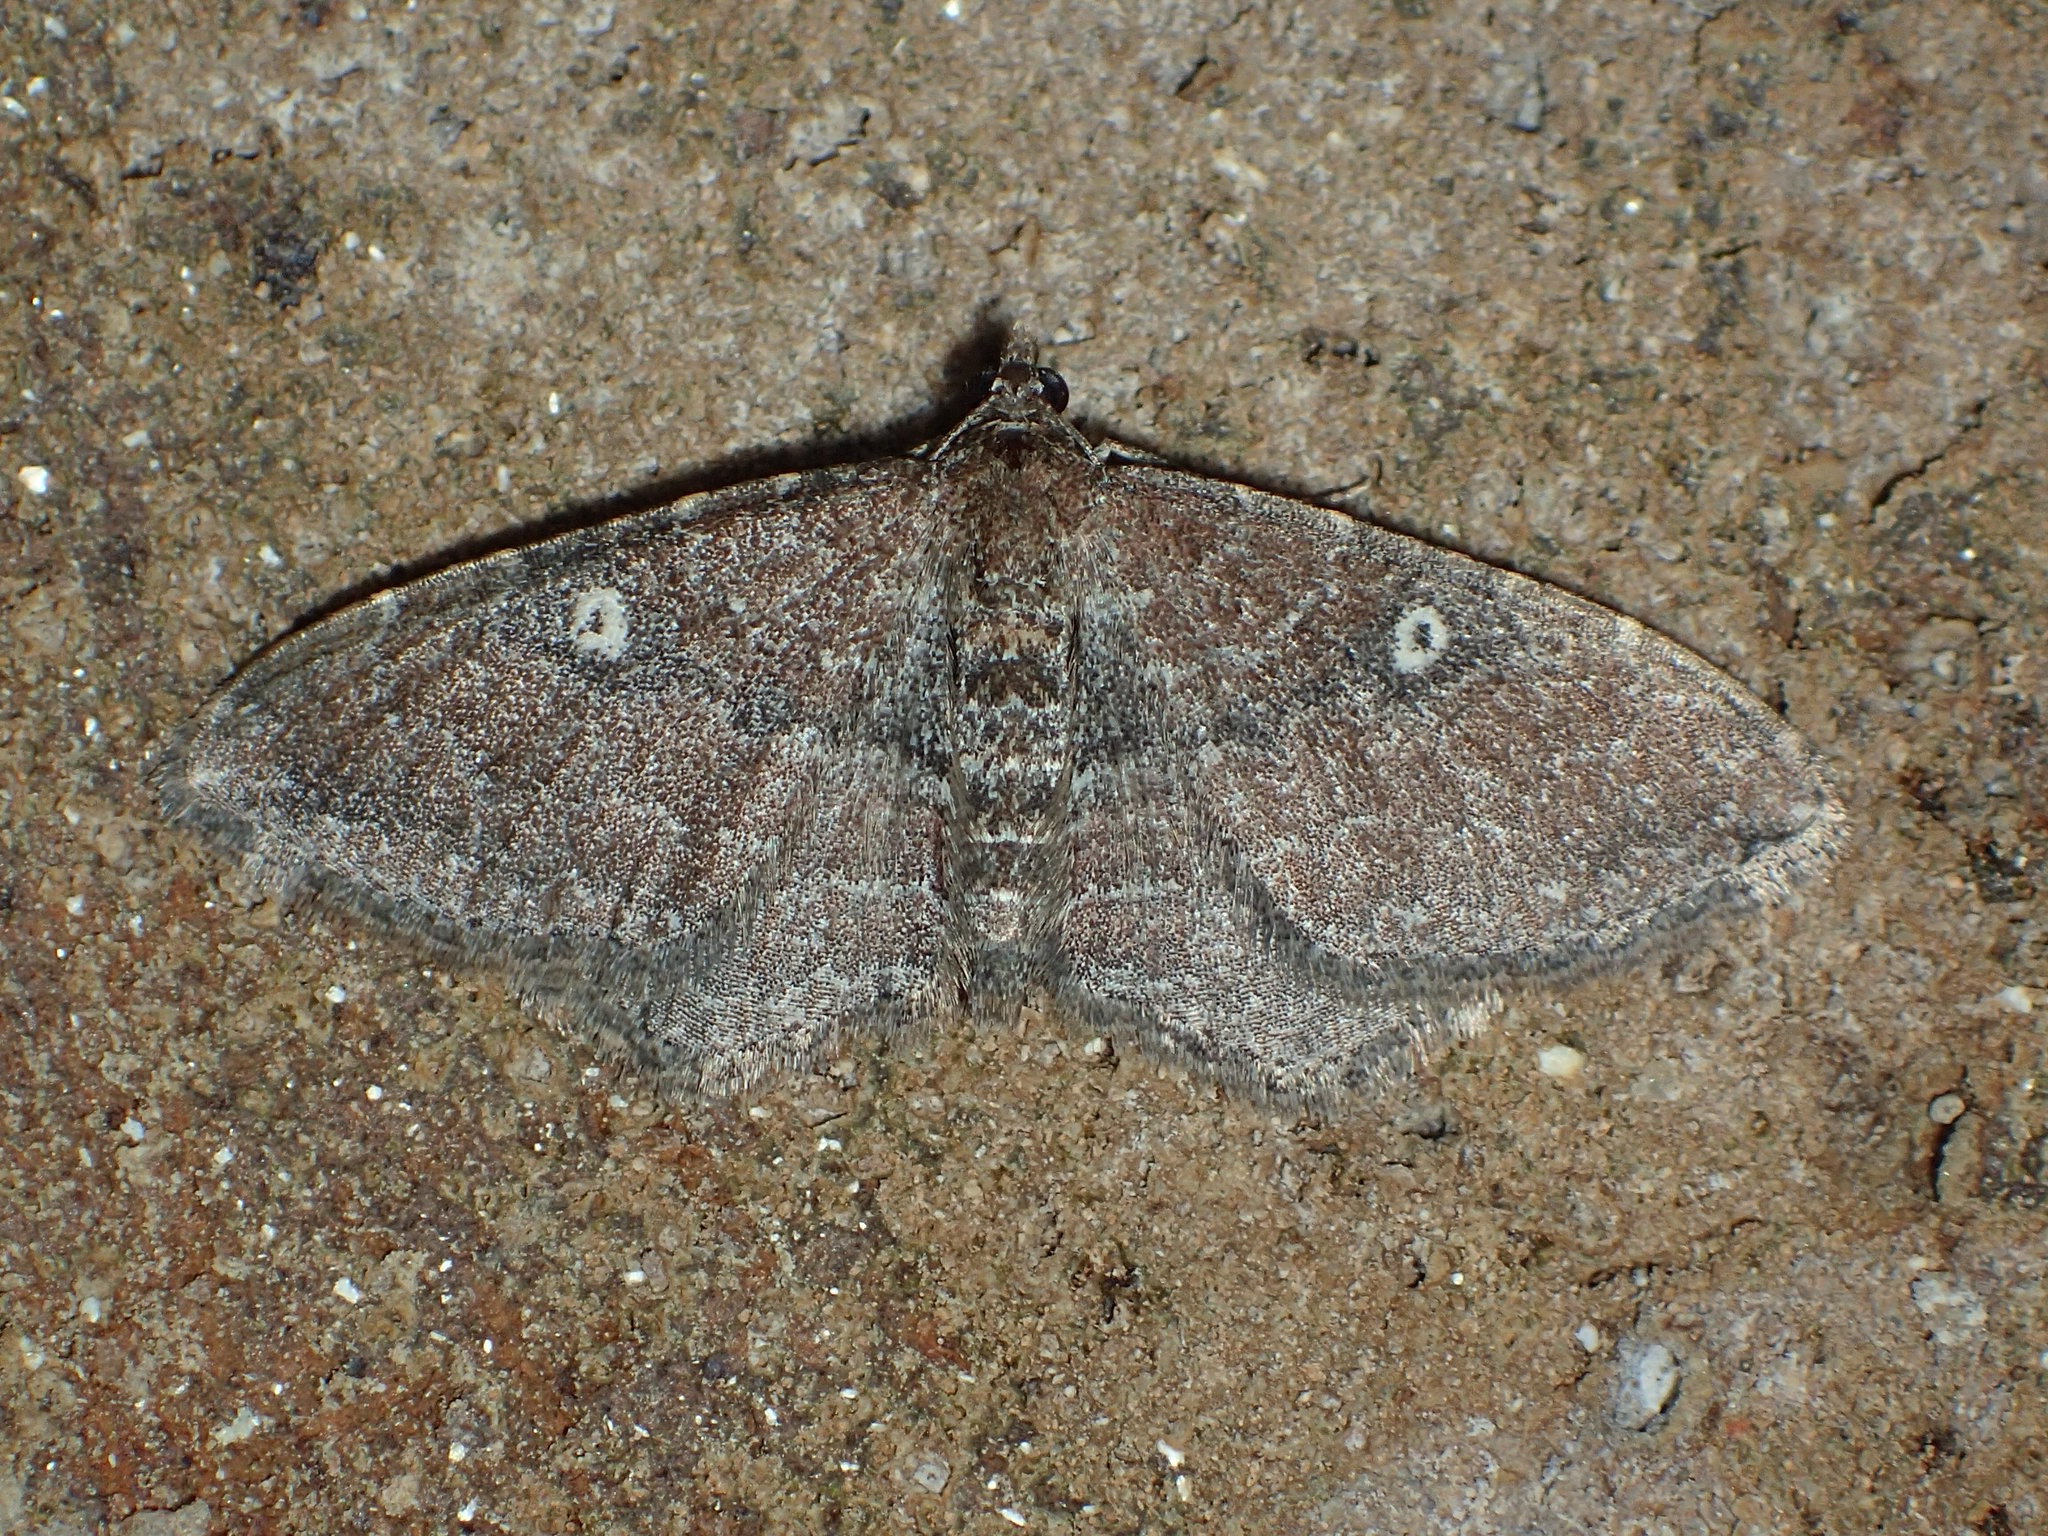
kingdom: Animalia
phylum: Arthropoda
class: Insecta
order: Lepidoptera
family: Geometridae
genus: Orthonama
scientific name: Orthonama obstipata
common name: The gem
